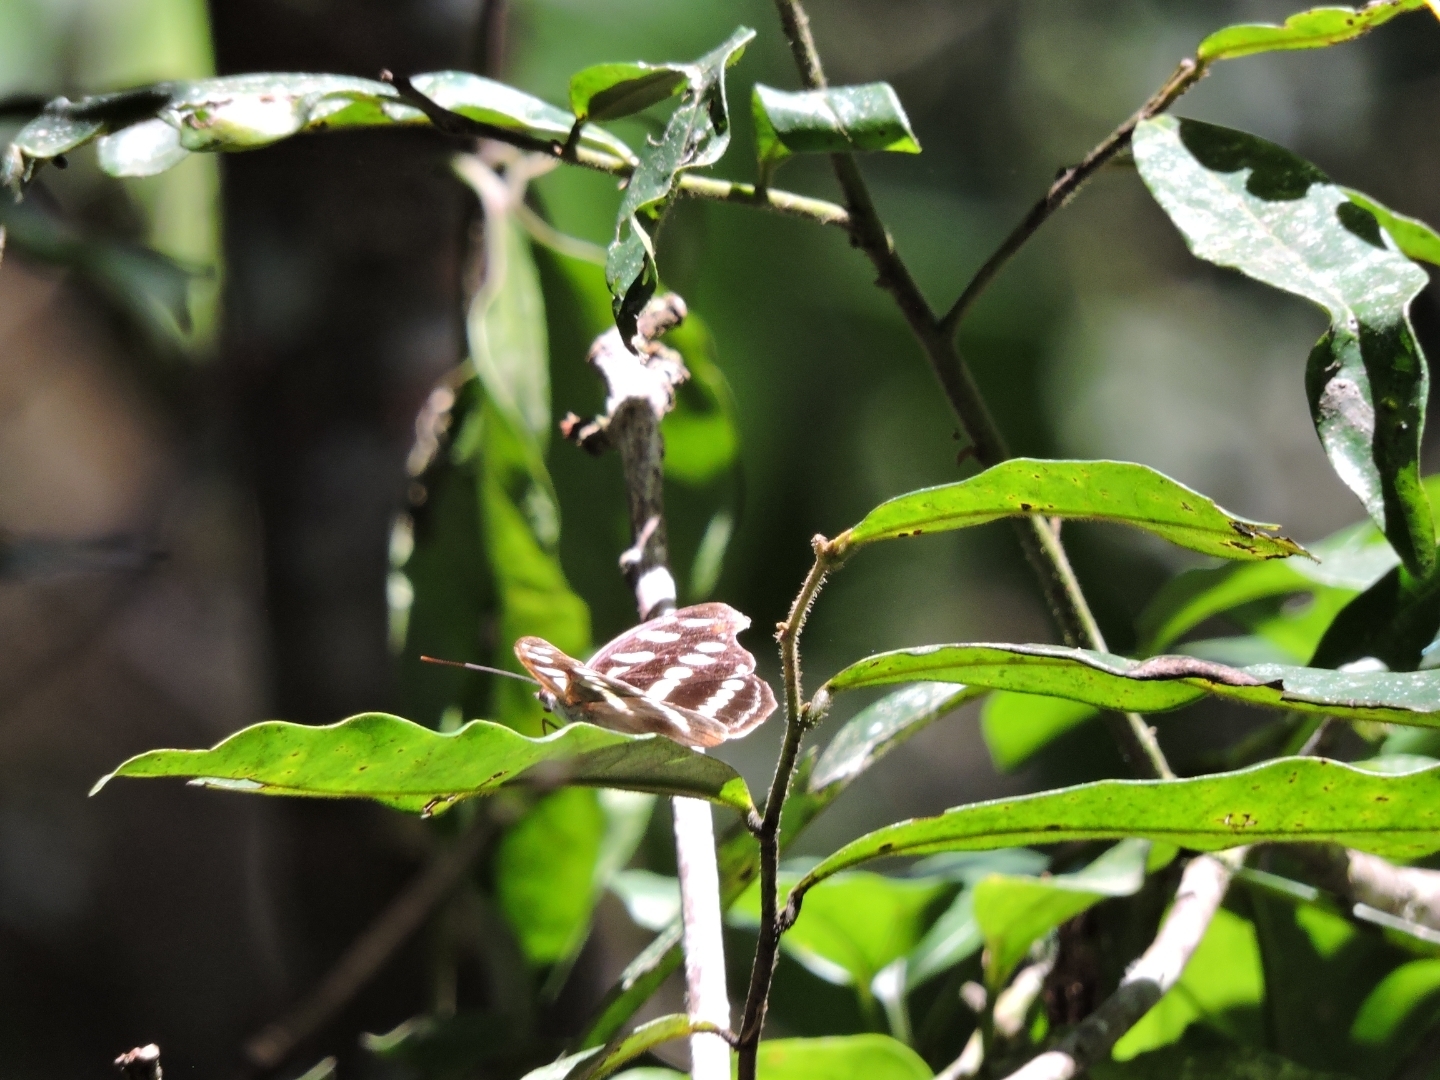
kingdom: Animalia
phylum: Arthropoda
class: Insecta
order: Lepidoptera
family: Nymphalidae
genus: Catonephele
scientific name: Catonephele acontius
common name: Unspotted firewing
